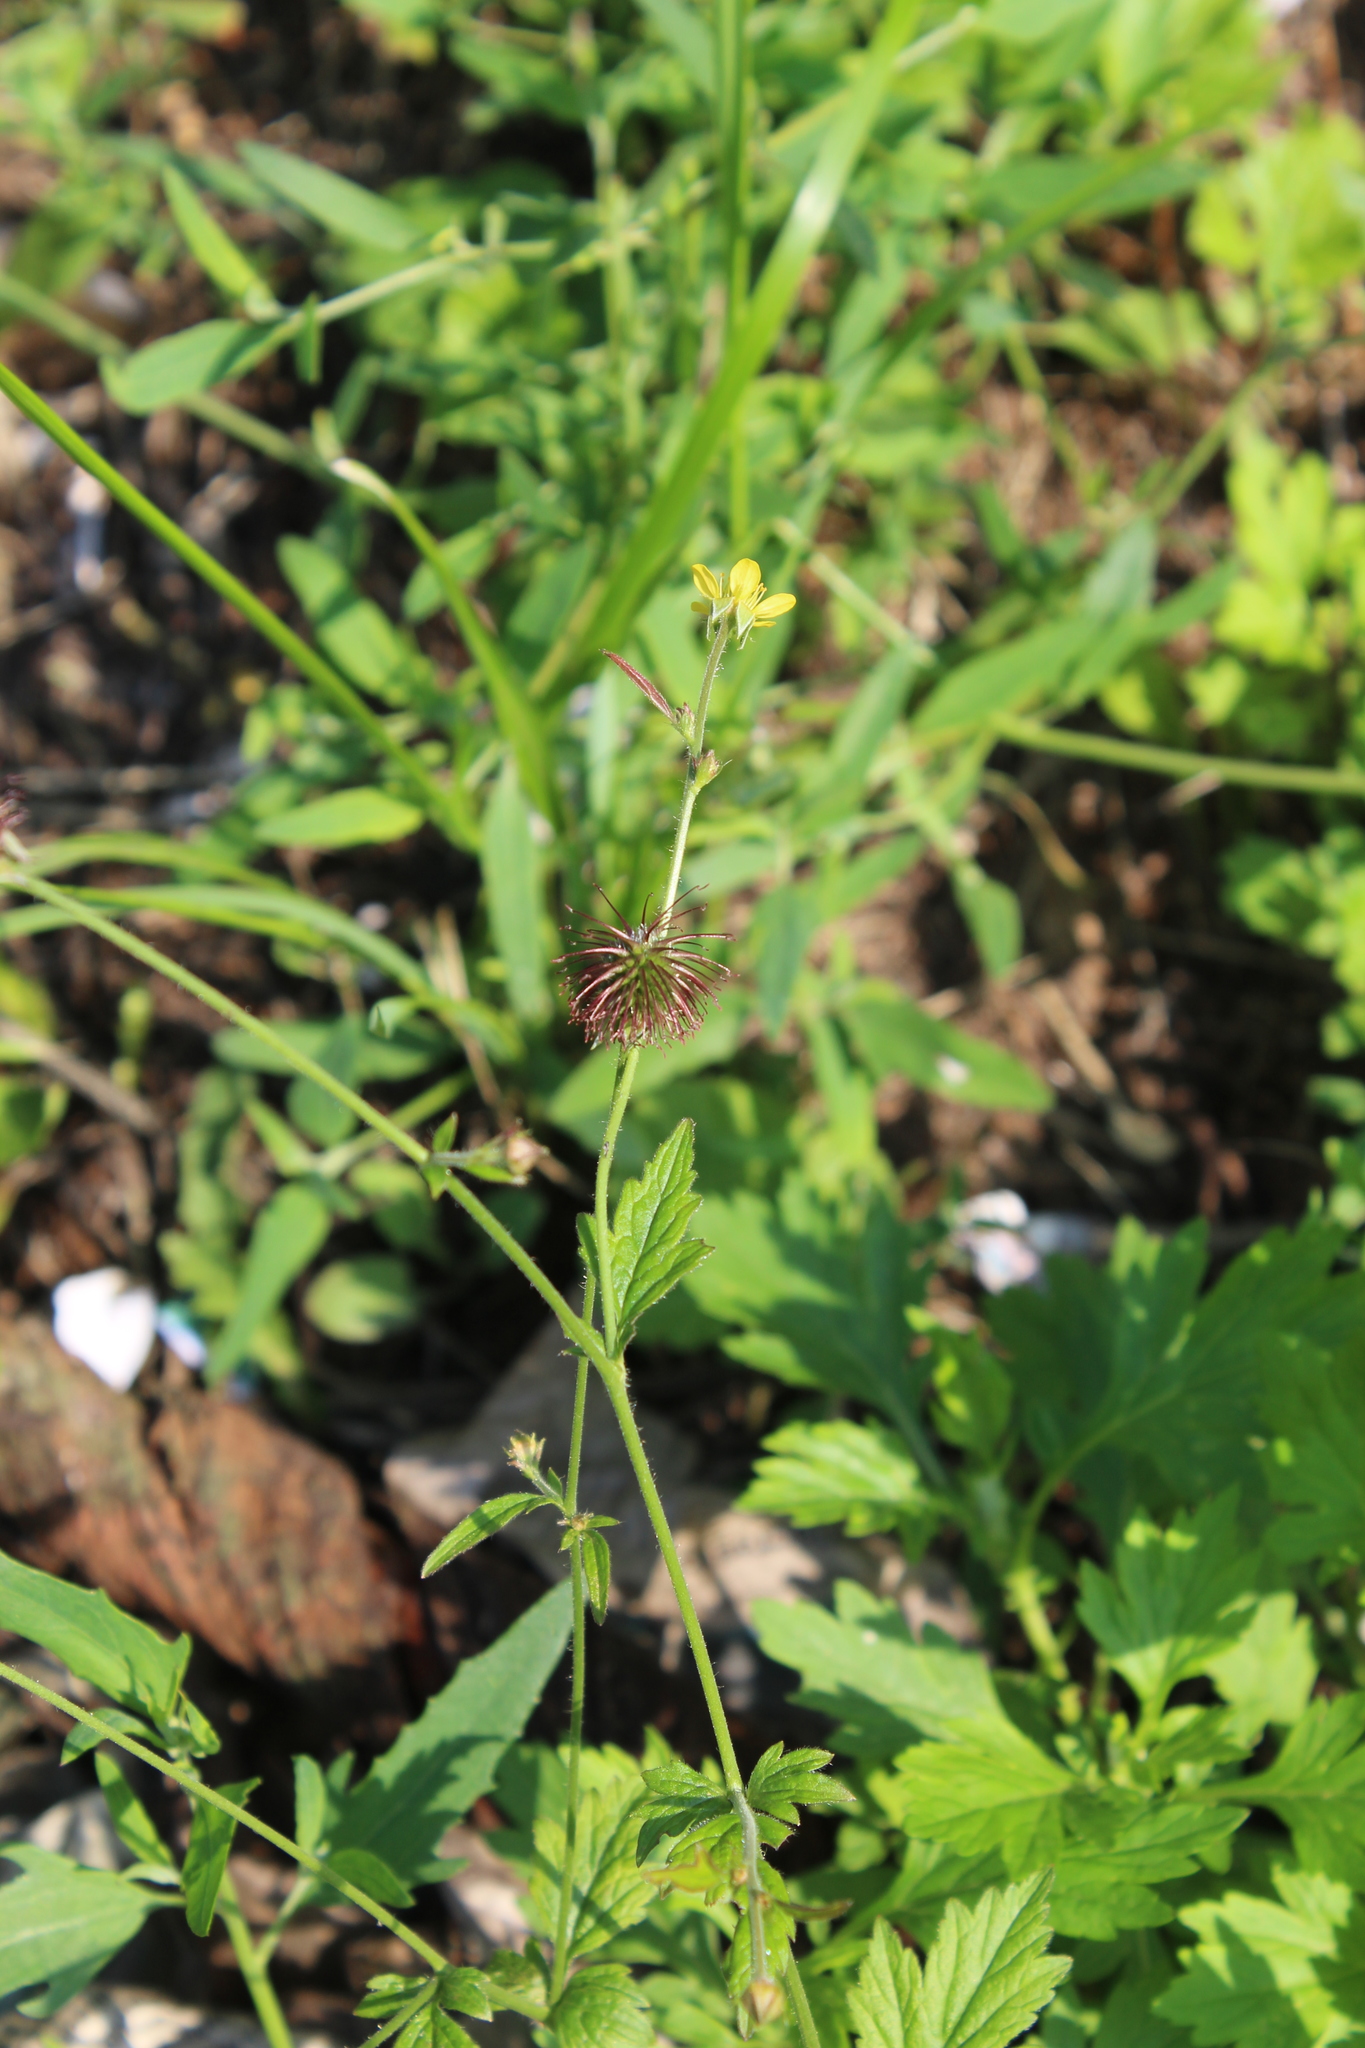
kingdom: Plantae
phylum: Tracheophyta
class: Magnoliopsida
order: Rosales
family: Rosaceae
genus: Geum
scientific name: Geum urbanum
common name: Wood avens
